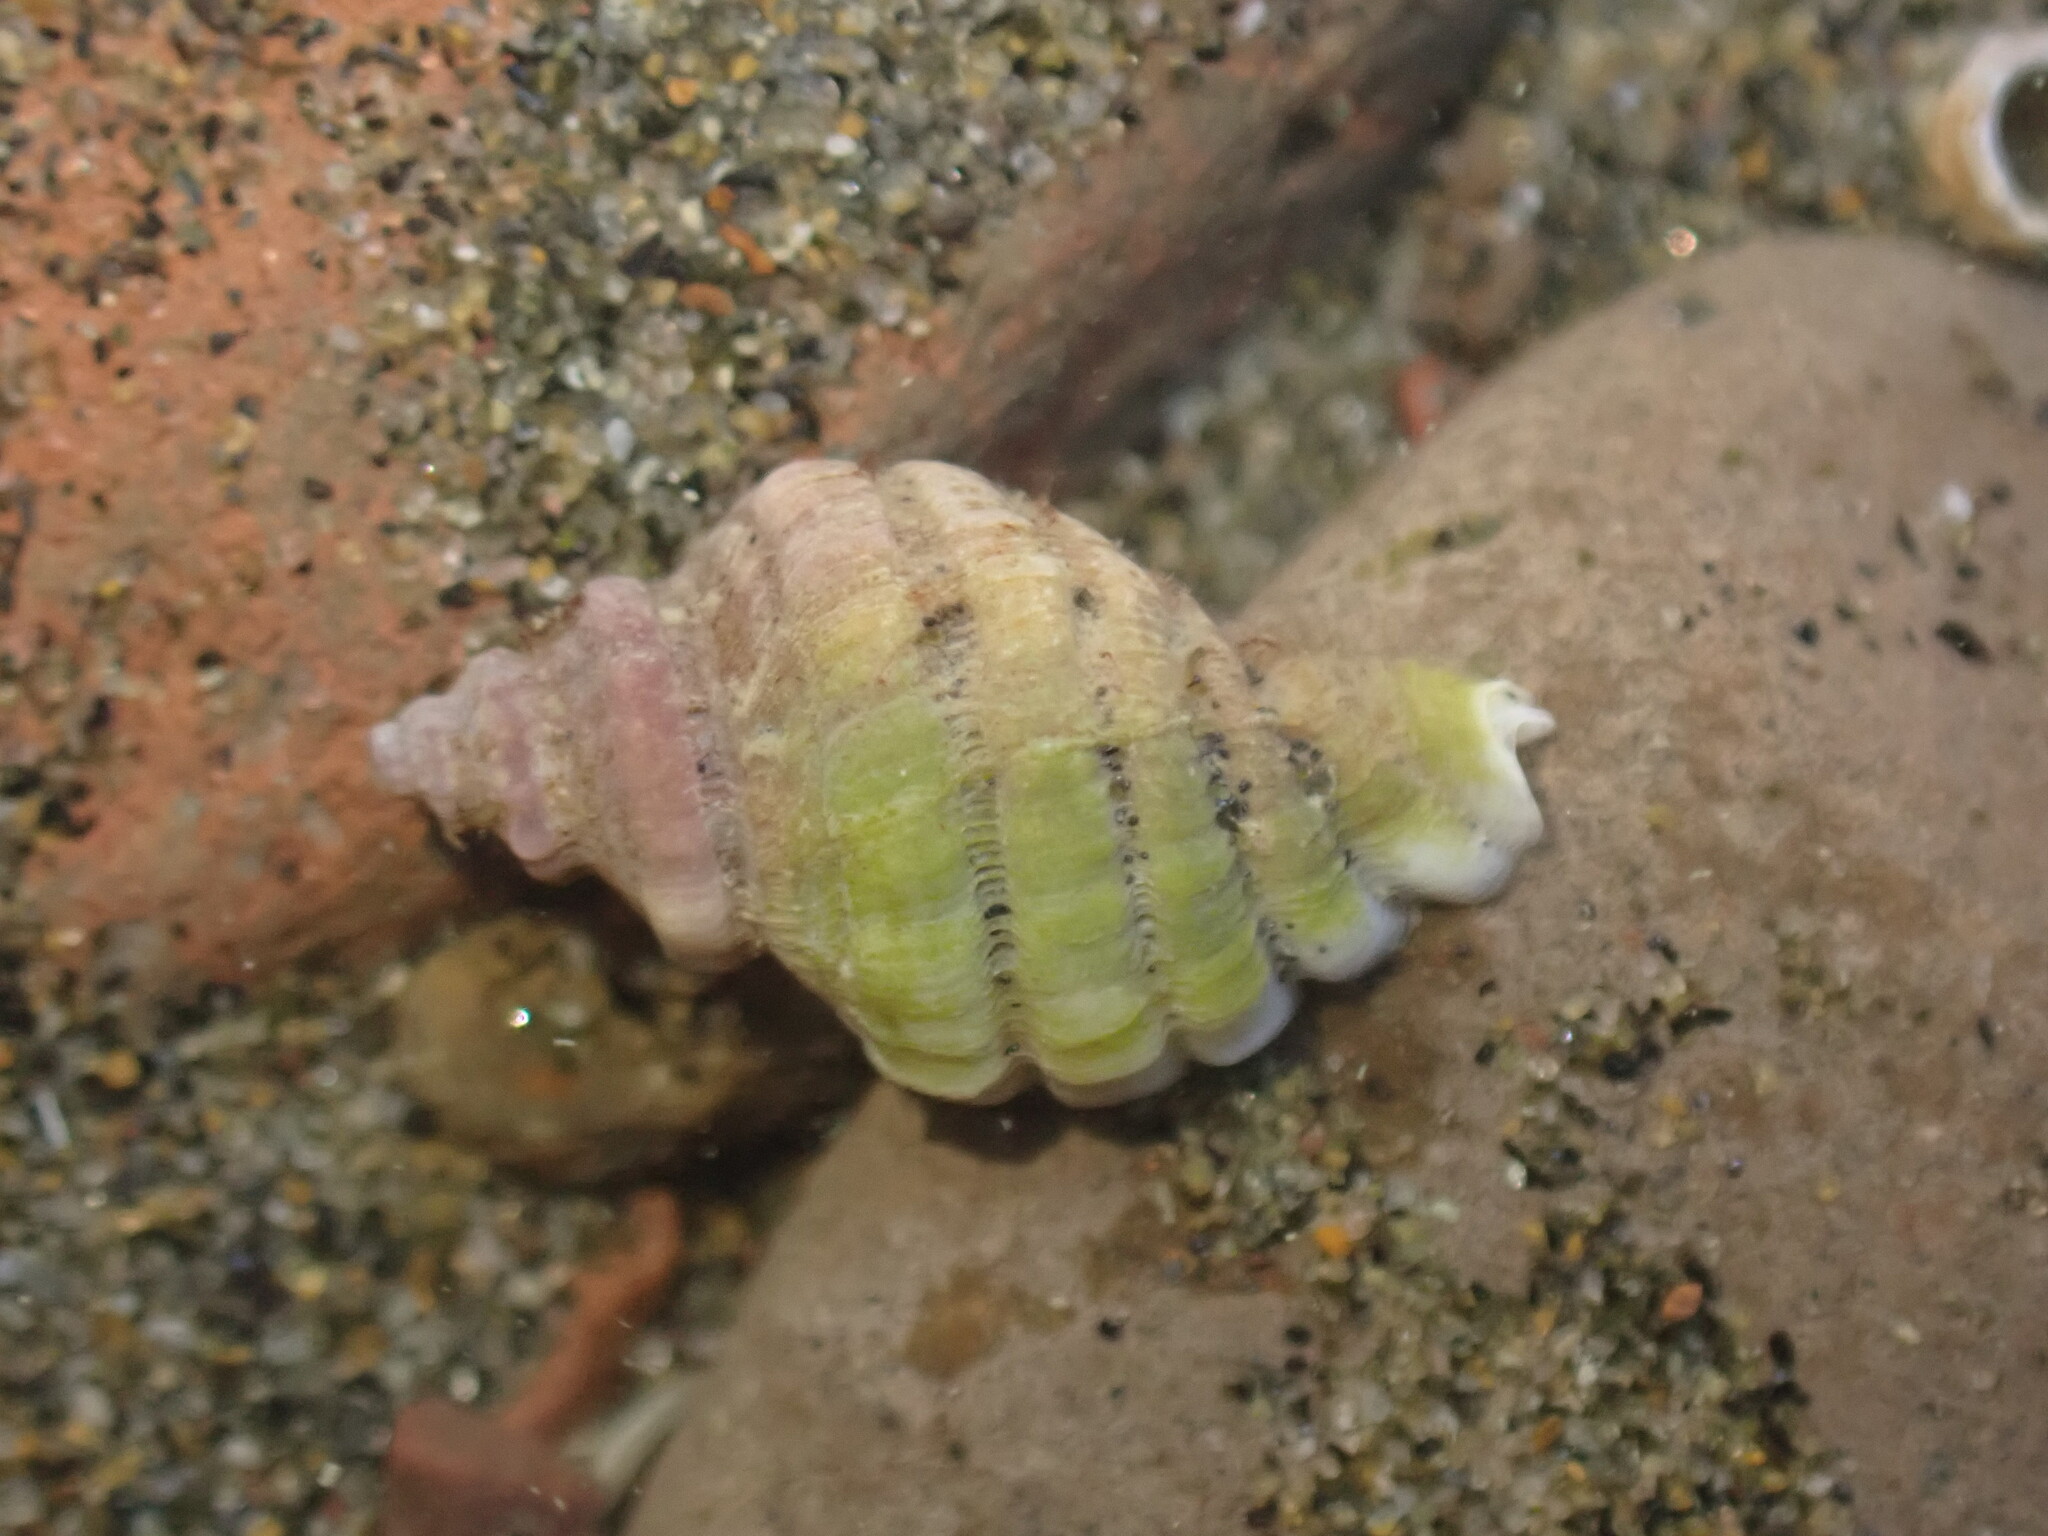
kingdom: Animalia
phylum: Mollusca
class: Gastropoda
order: Neogastropoda
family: Muricidae
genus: Paratrophon
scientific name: Paratrophon cheesemani
